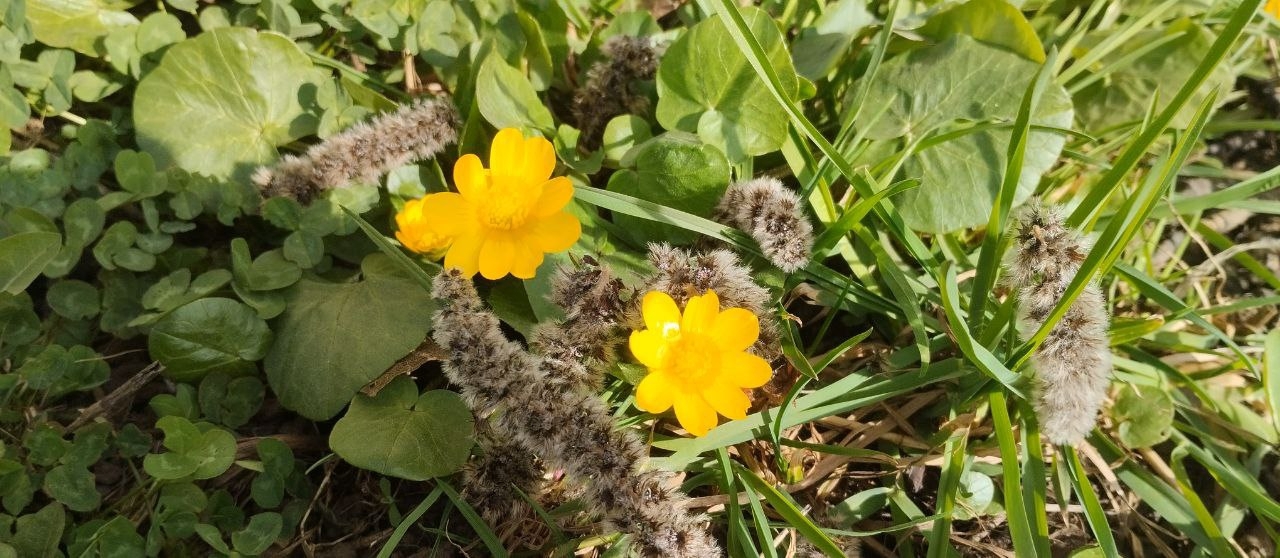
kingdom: Plantae
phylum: Tracheophyta
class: Magnoliopsida
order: Ranunculales
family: Ranunculaceae
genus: Ficaria
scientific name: Ficaria verna
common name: Lesser celandine
